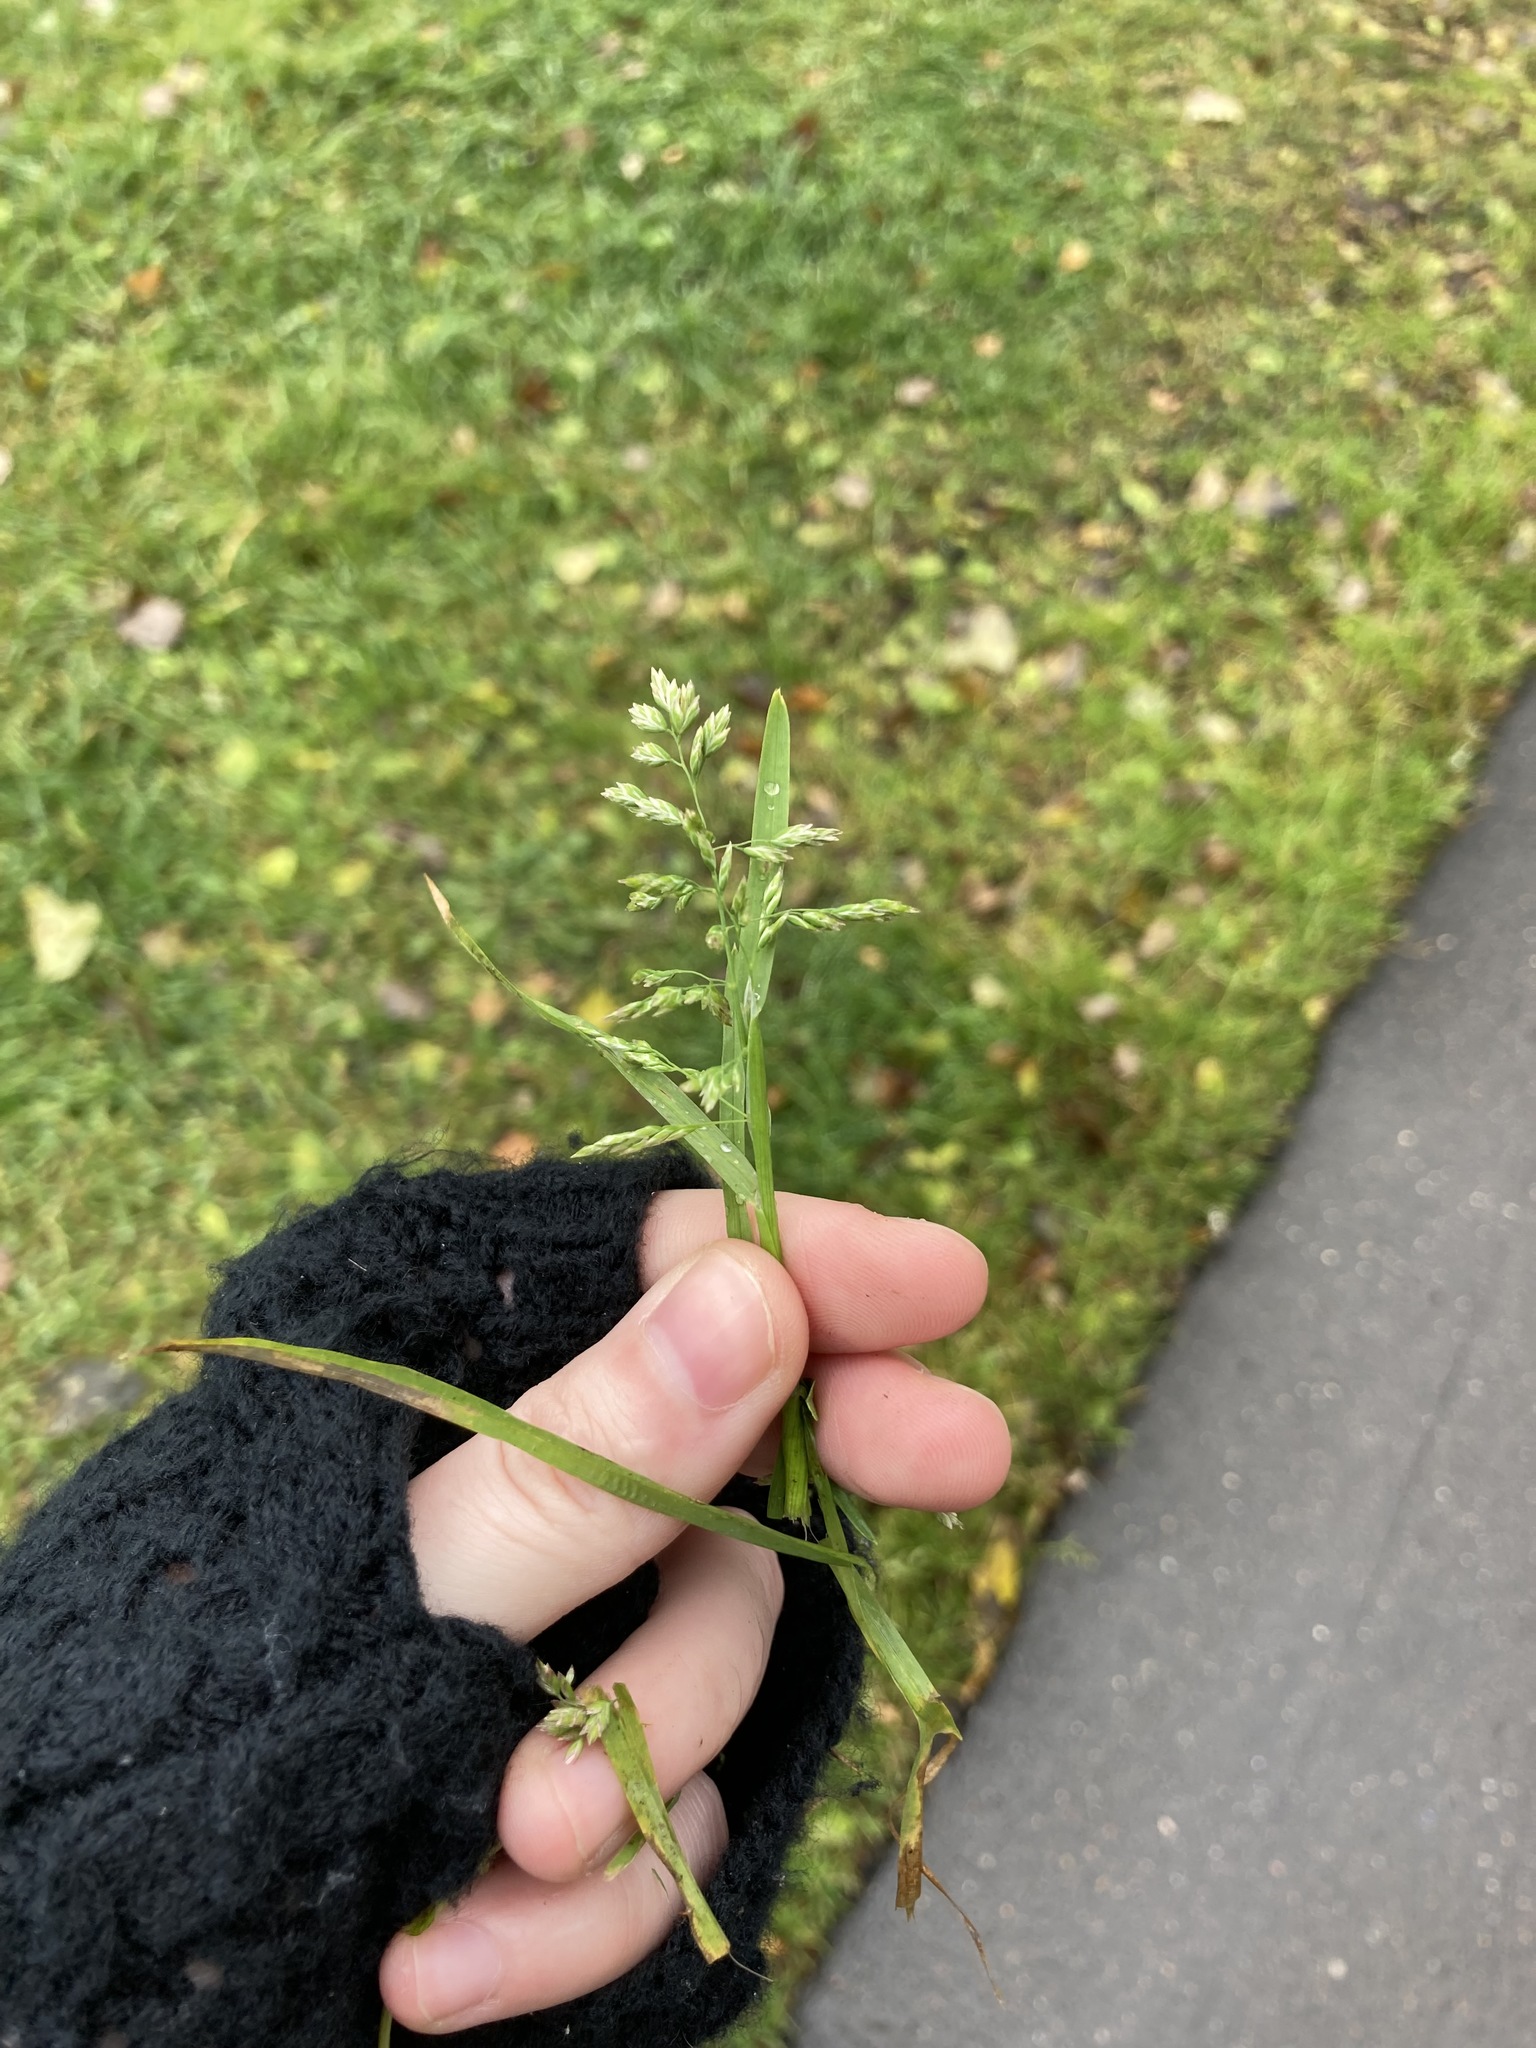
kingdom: Plantae
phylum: Tracheophyta
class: Liliopsida
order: Poales
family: Poaceae
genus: Poa
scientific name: Poa annua
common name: Annual bluegrass
